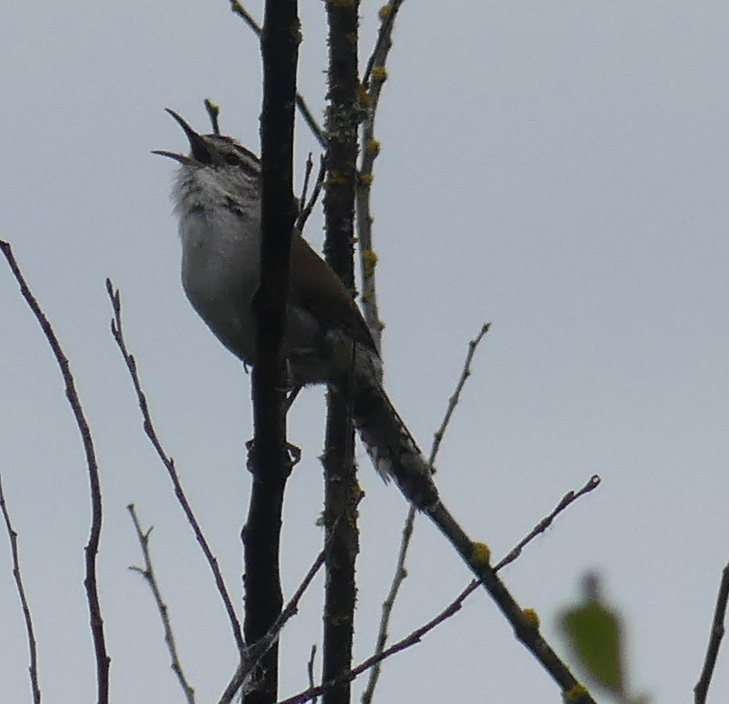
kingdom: Animalia
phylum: Chordata
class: Aves
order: Passeriformes
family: Troglodytidae
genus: Thryomanes
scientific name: Thryomanes bewickii
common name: Bewick's wren
